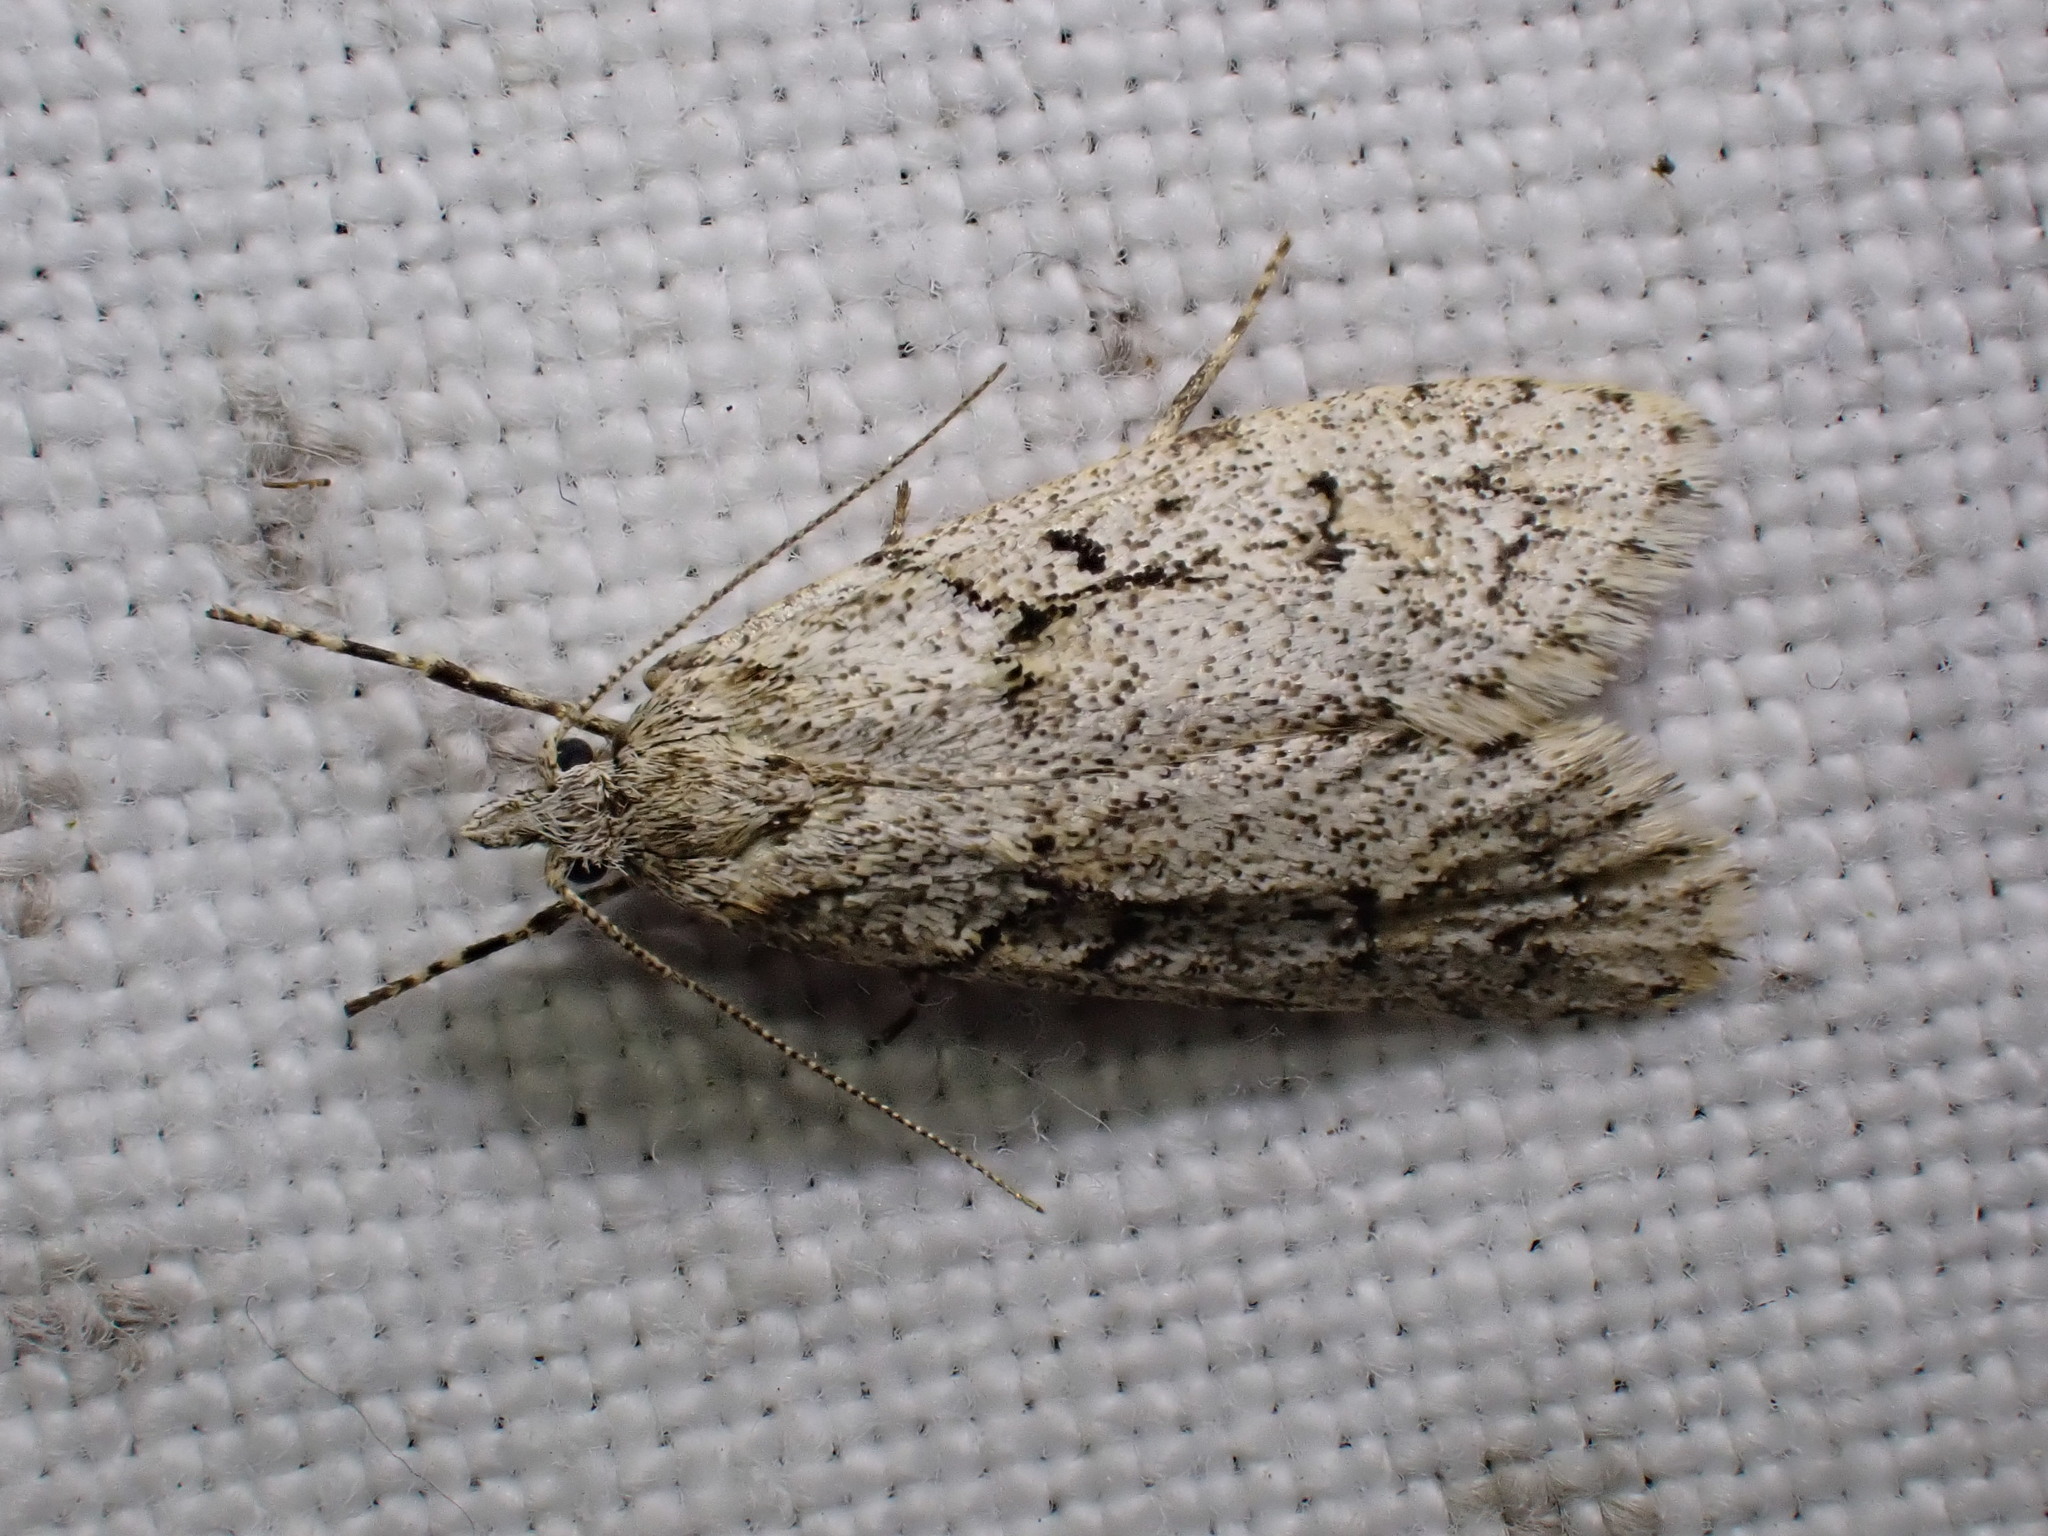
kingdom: Animalia
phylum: Arthropoda
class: Insecta
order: Lepidoptera
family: Lypusidae
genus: Diurnea
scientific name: Diurnea fagella
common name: March tubic
